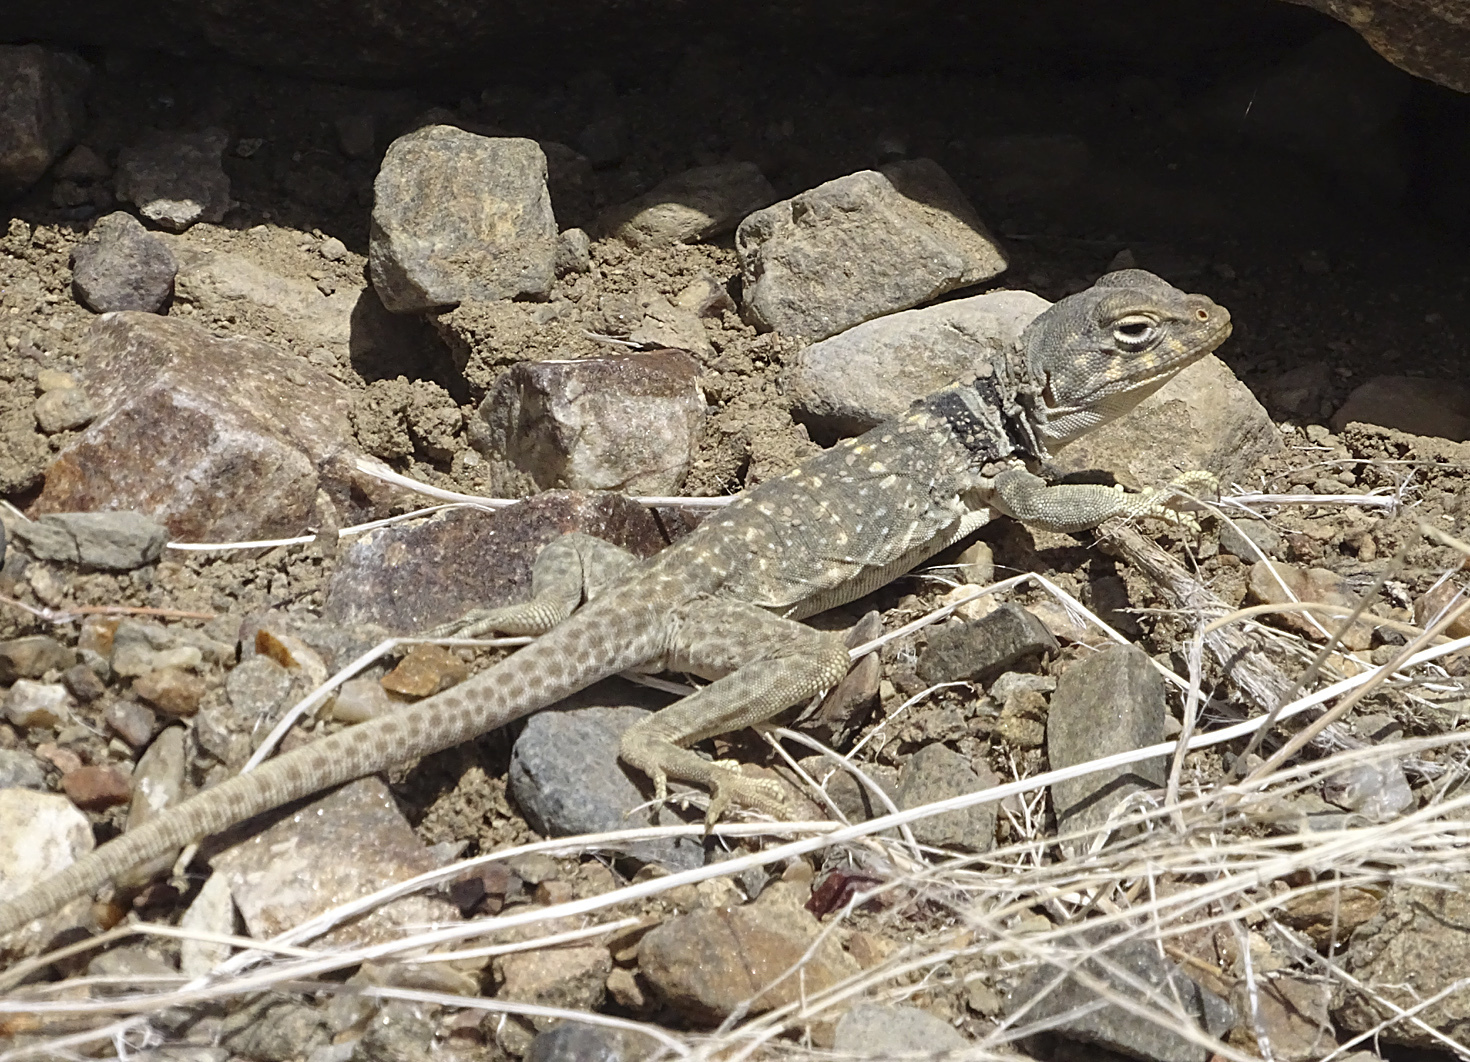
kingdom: Animalia
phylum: Chordata
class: Squamata
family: Crotaphytidae
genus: Crotaphytus
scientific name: Crotaphytus bicinctores
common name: Mojave black-collared lizard
